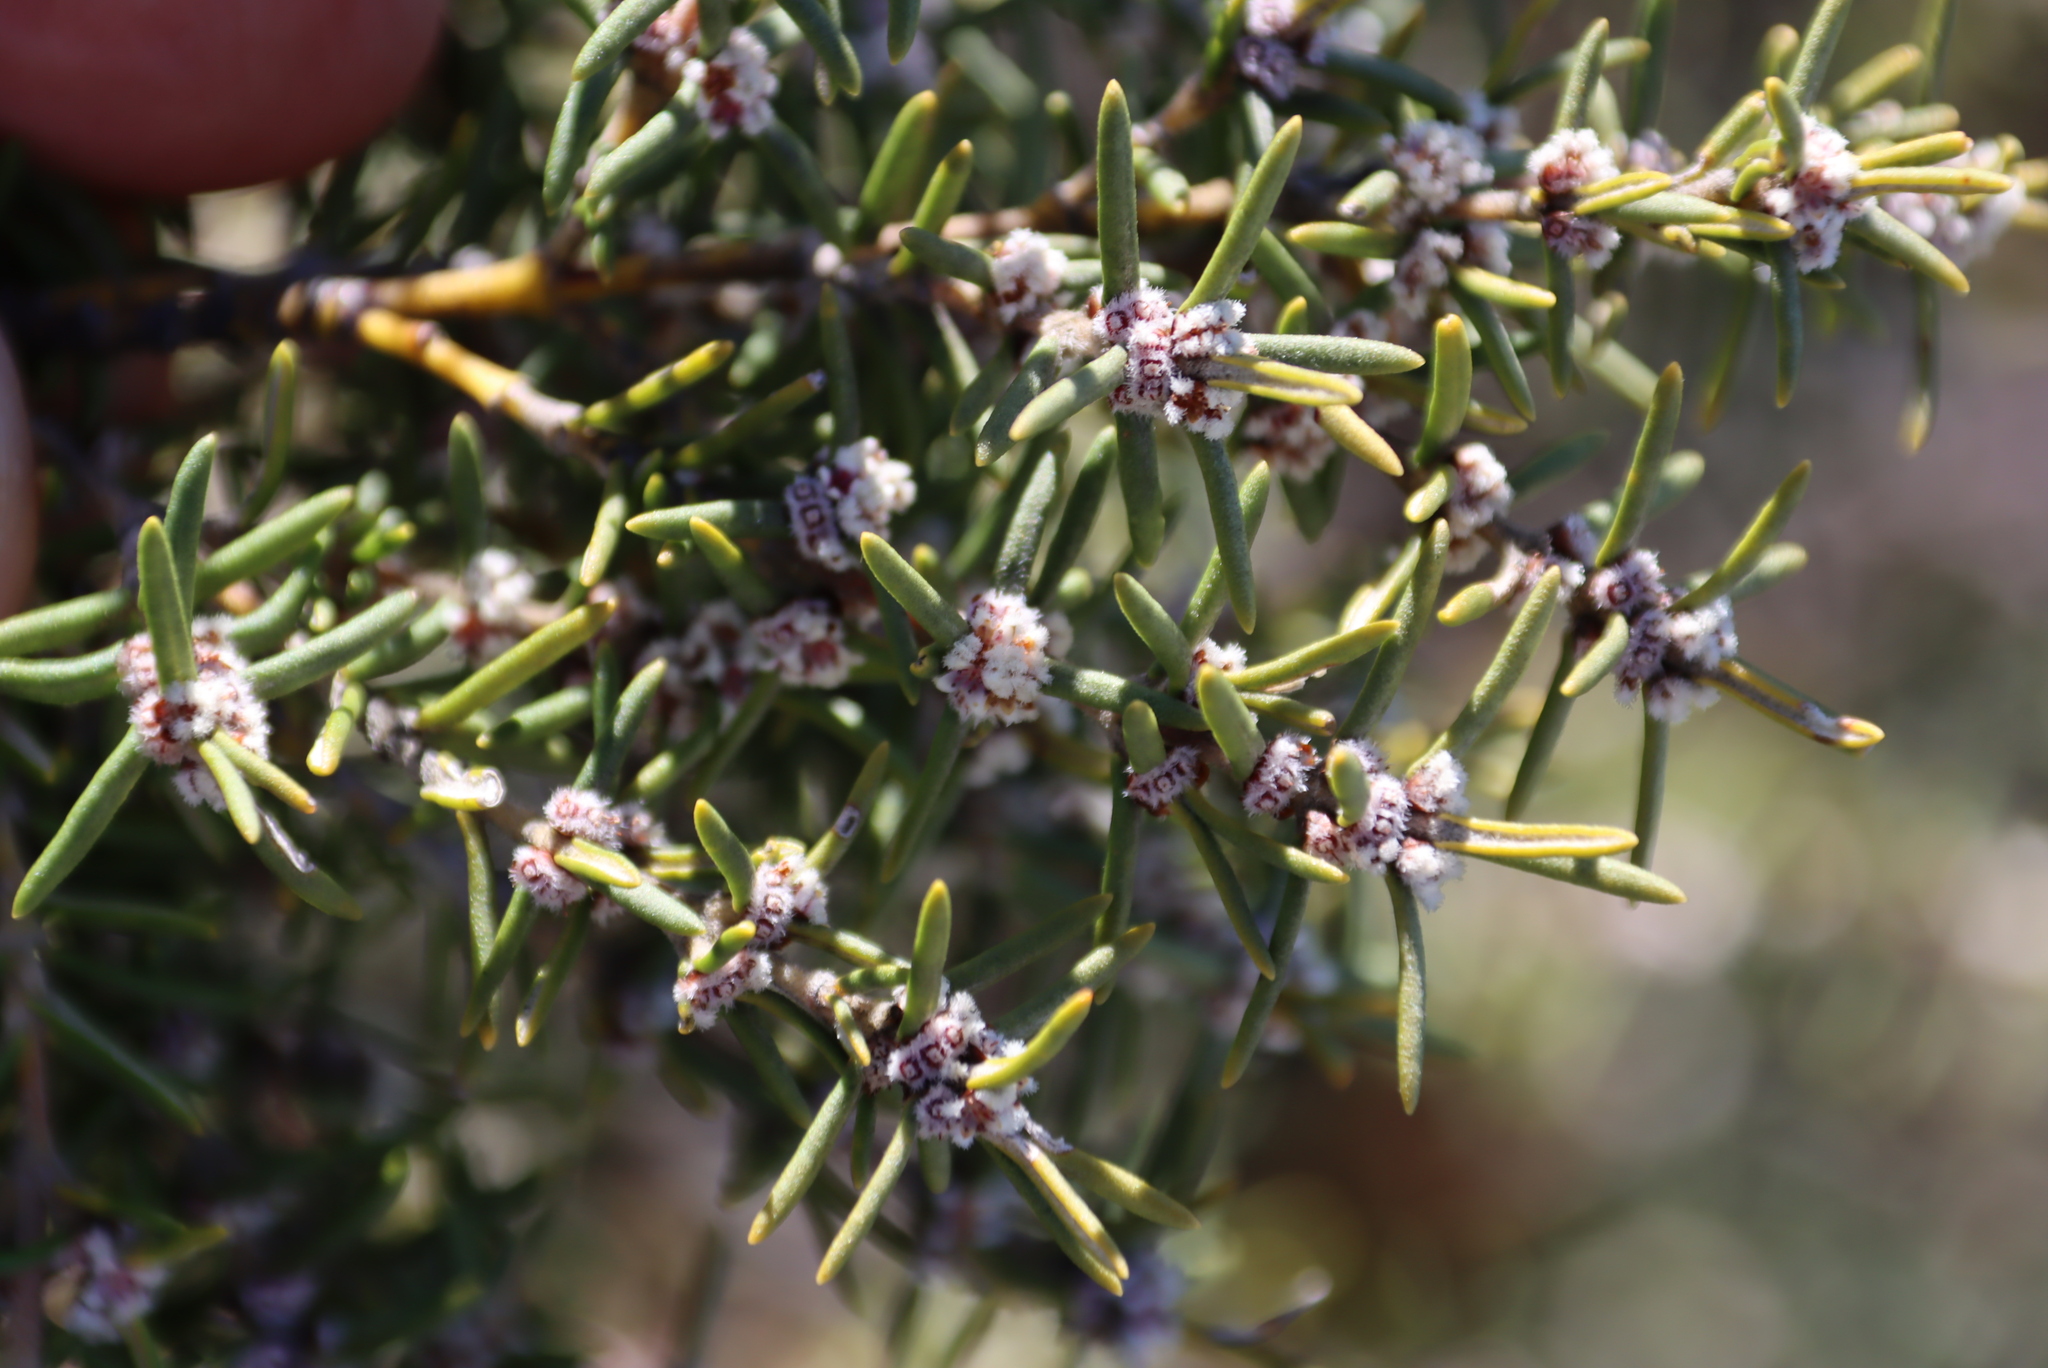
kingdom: Plantae
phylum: Tracheophyta
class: Magnoliopsida
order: Cornales
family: Grubbiaceae
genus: Grubbia
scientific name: Grubbia rosmarinifolia
